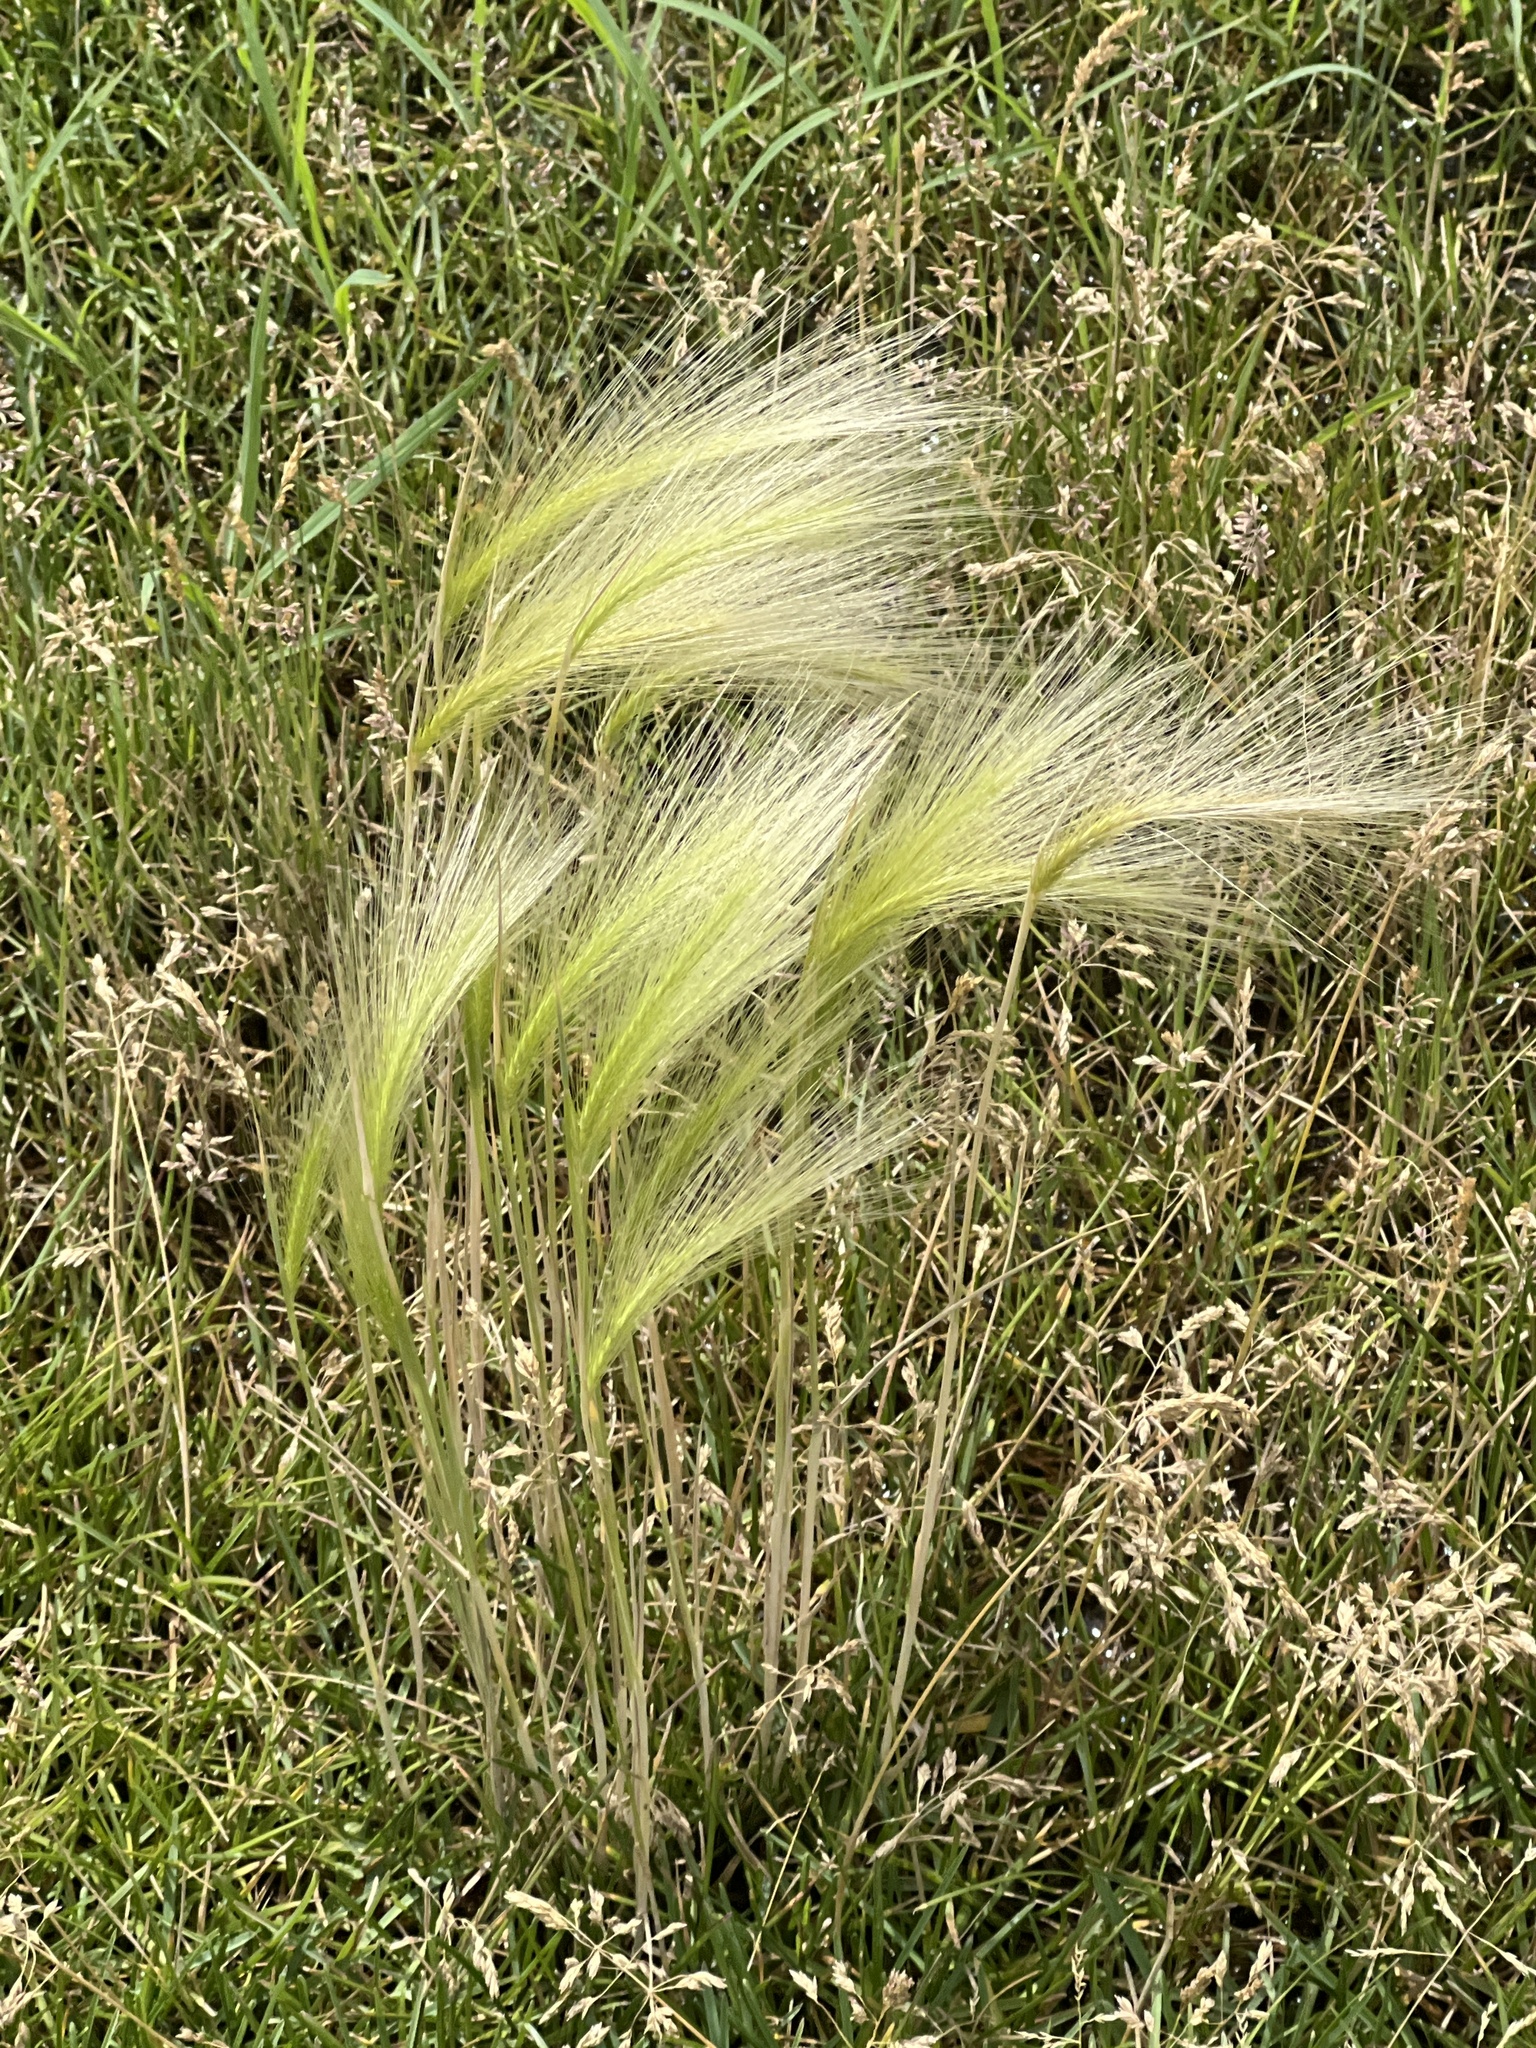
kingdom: Plantae
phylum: Tracheophyta
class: Liliopsida
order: Poales
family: Poaceae
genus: Hordeum
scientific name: Hordeum jubatum
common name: Foxtail barley
